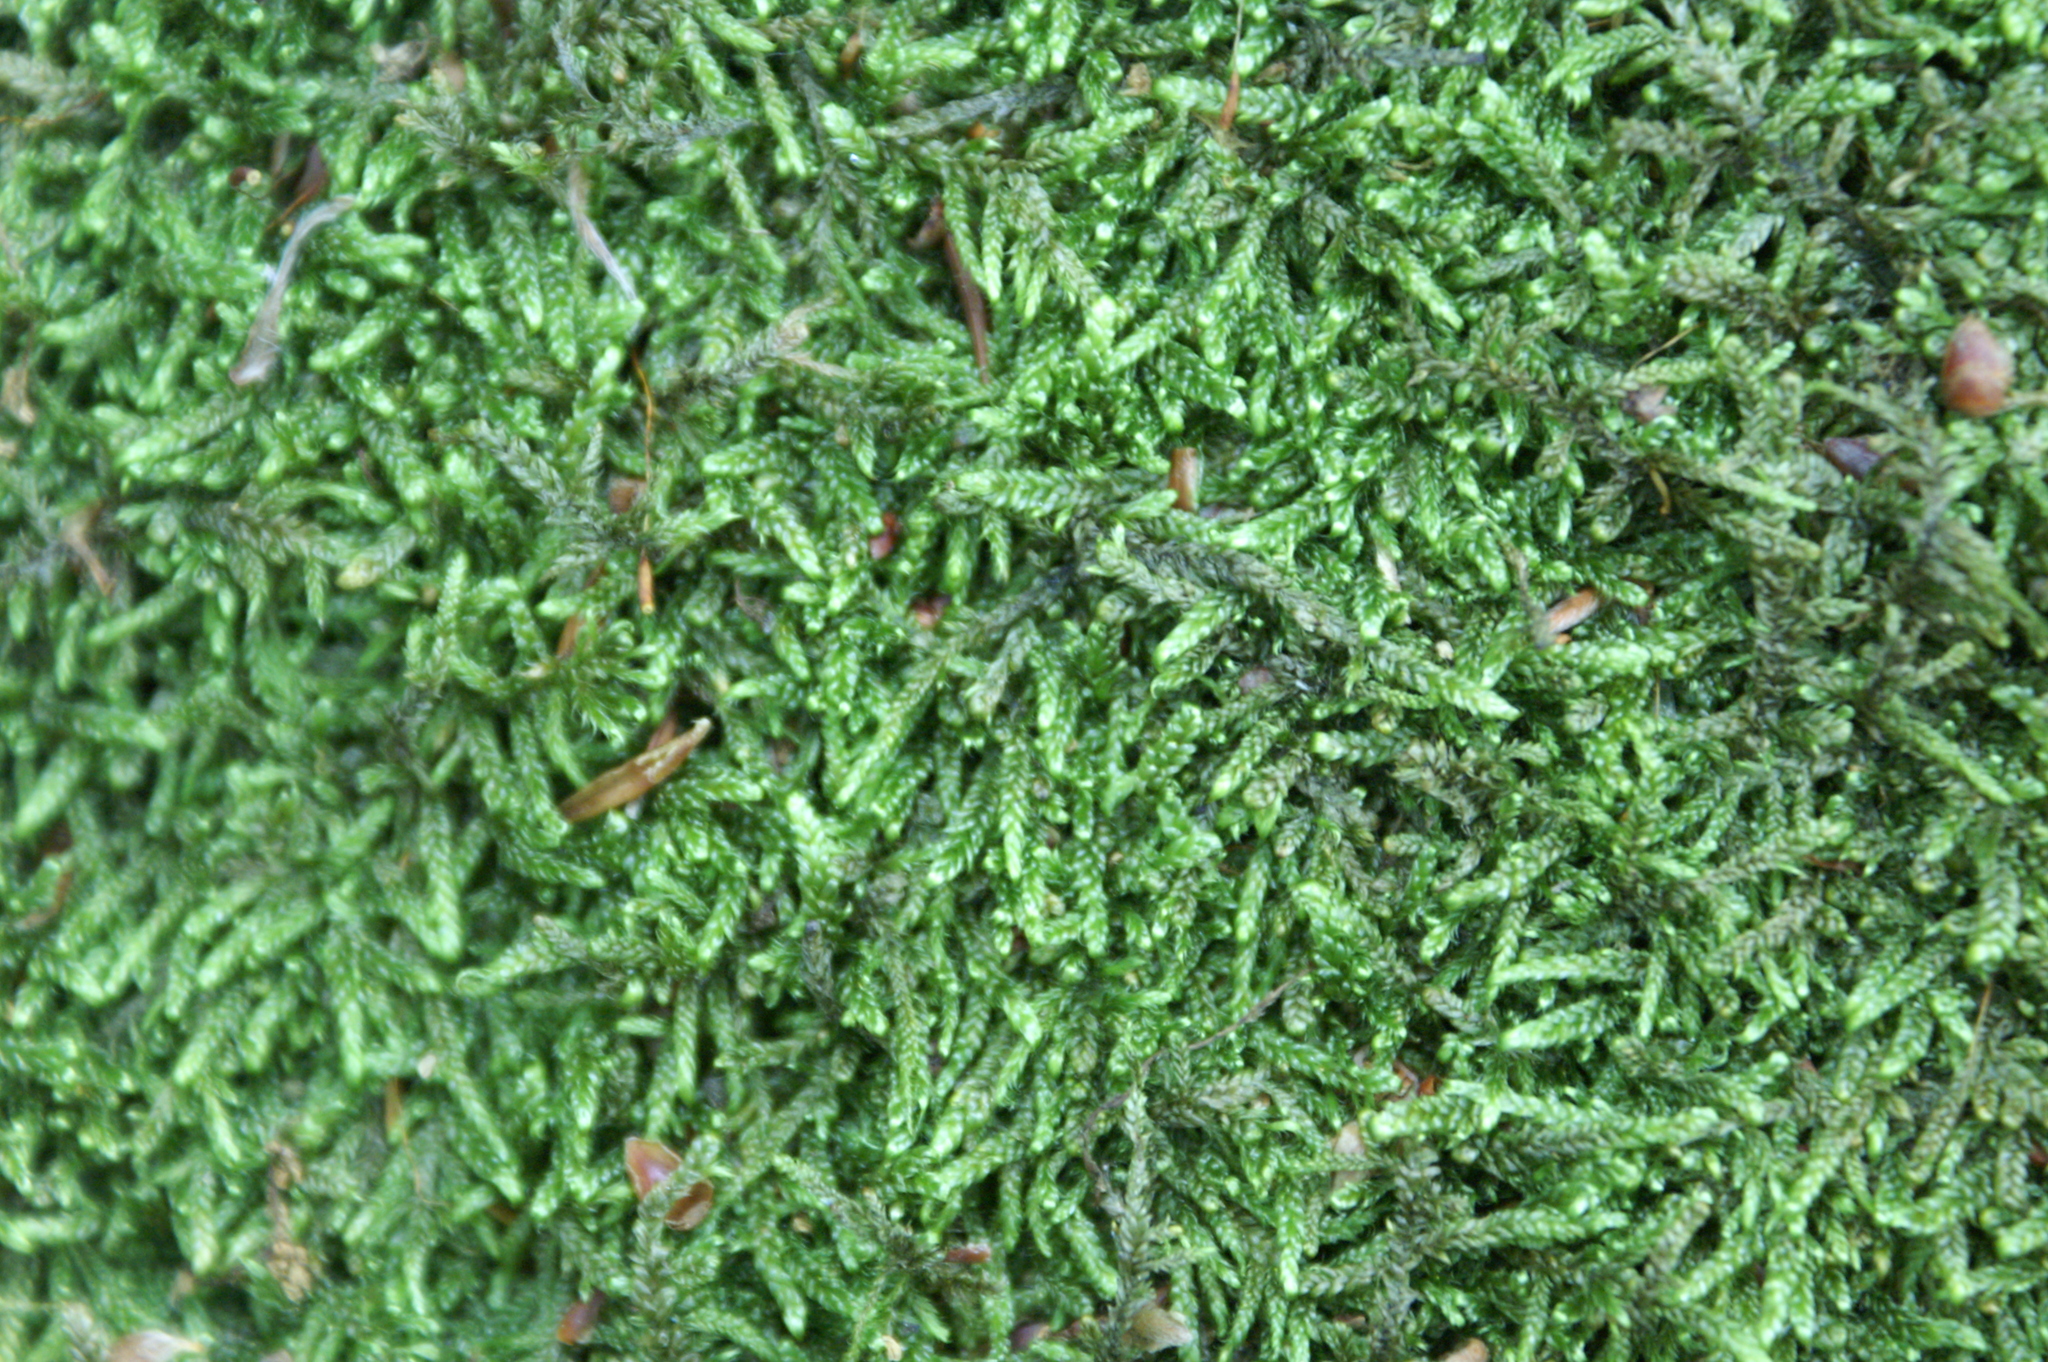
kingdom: Plantae
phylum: Bryophyta
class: Bryopsida
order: Hypnales
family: Hypnaceae
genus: Hypnum
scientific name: Hypnum cupressiforme
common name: Cypress-leaved plait-moss
